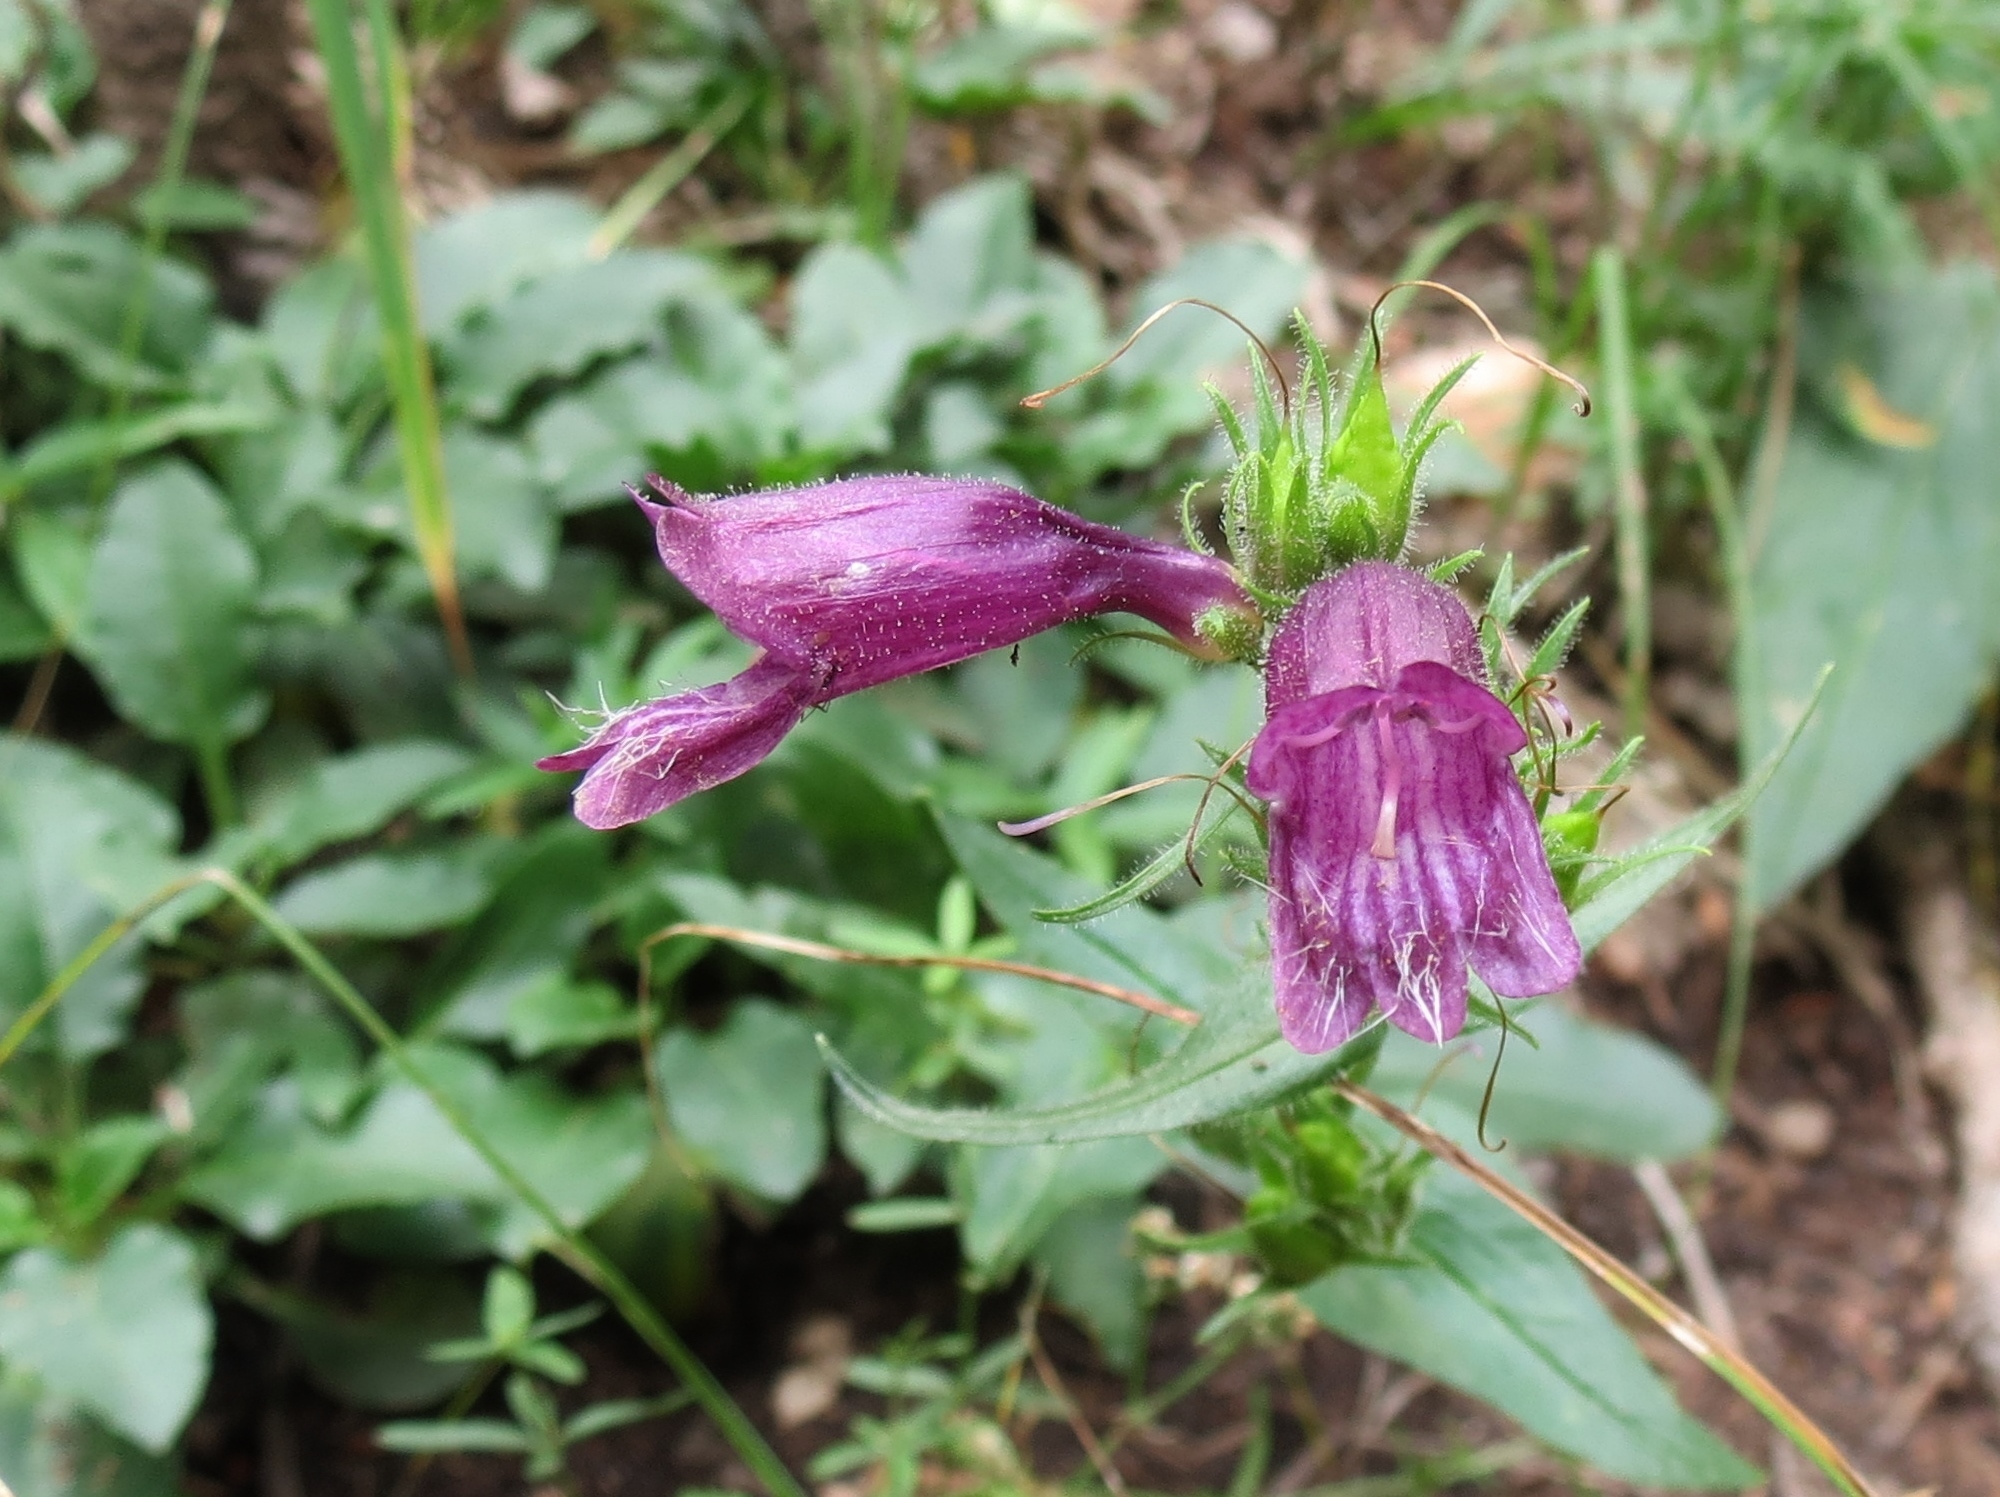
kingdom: Plantae
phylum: Tracheophyta
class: Magnoliopsida
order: Lamiales
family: Plantaginaceae
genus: Penstemon
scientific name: Penstemon whippleanus
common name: Whipple's penstemon
